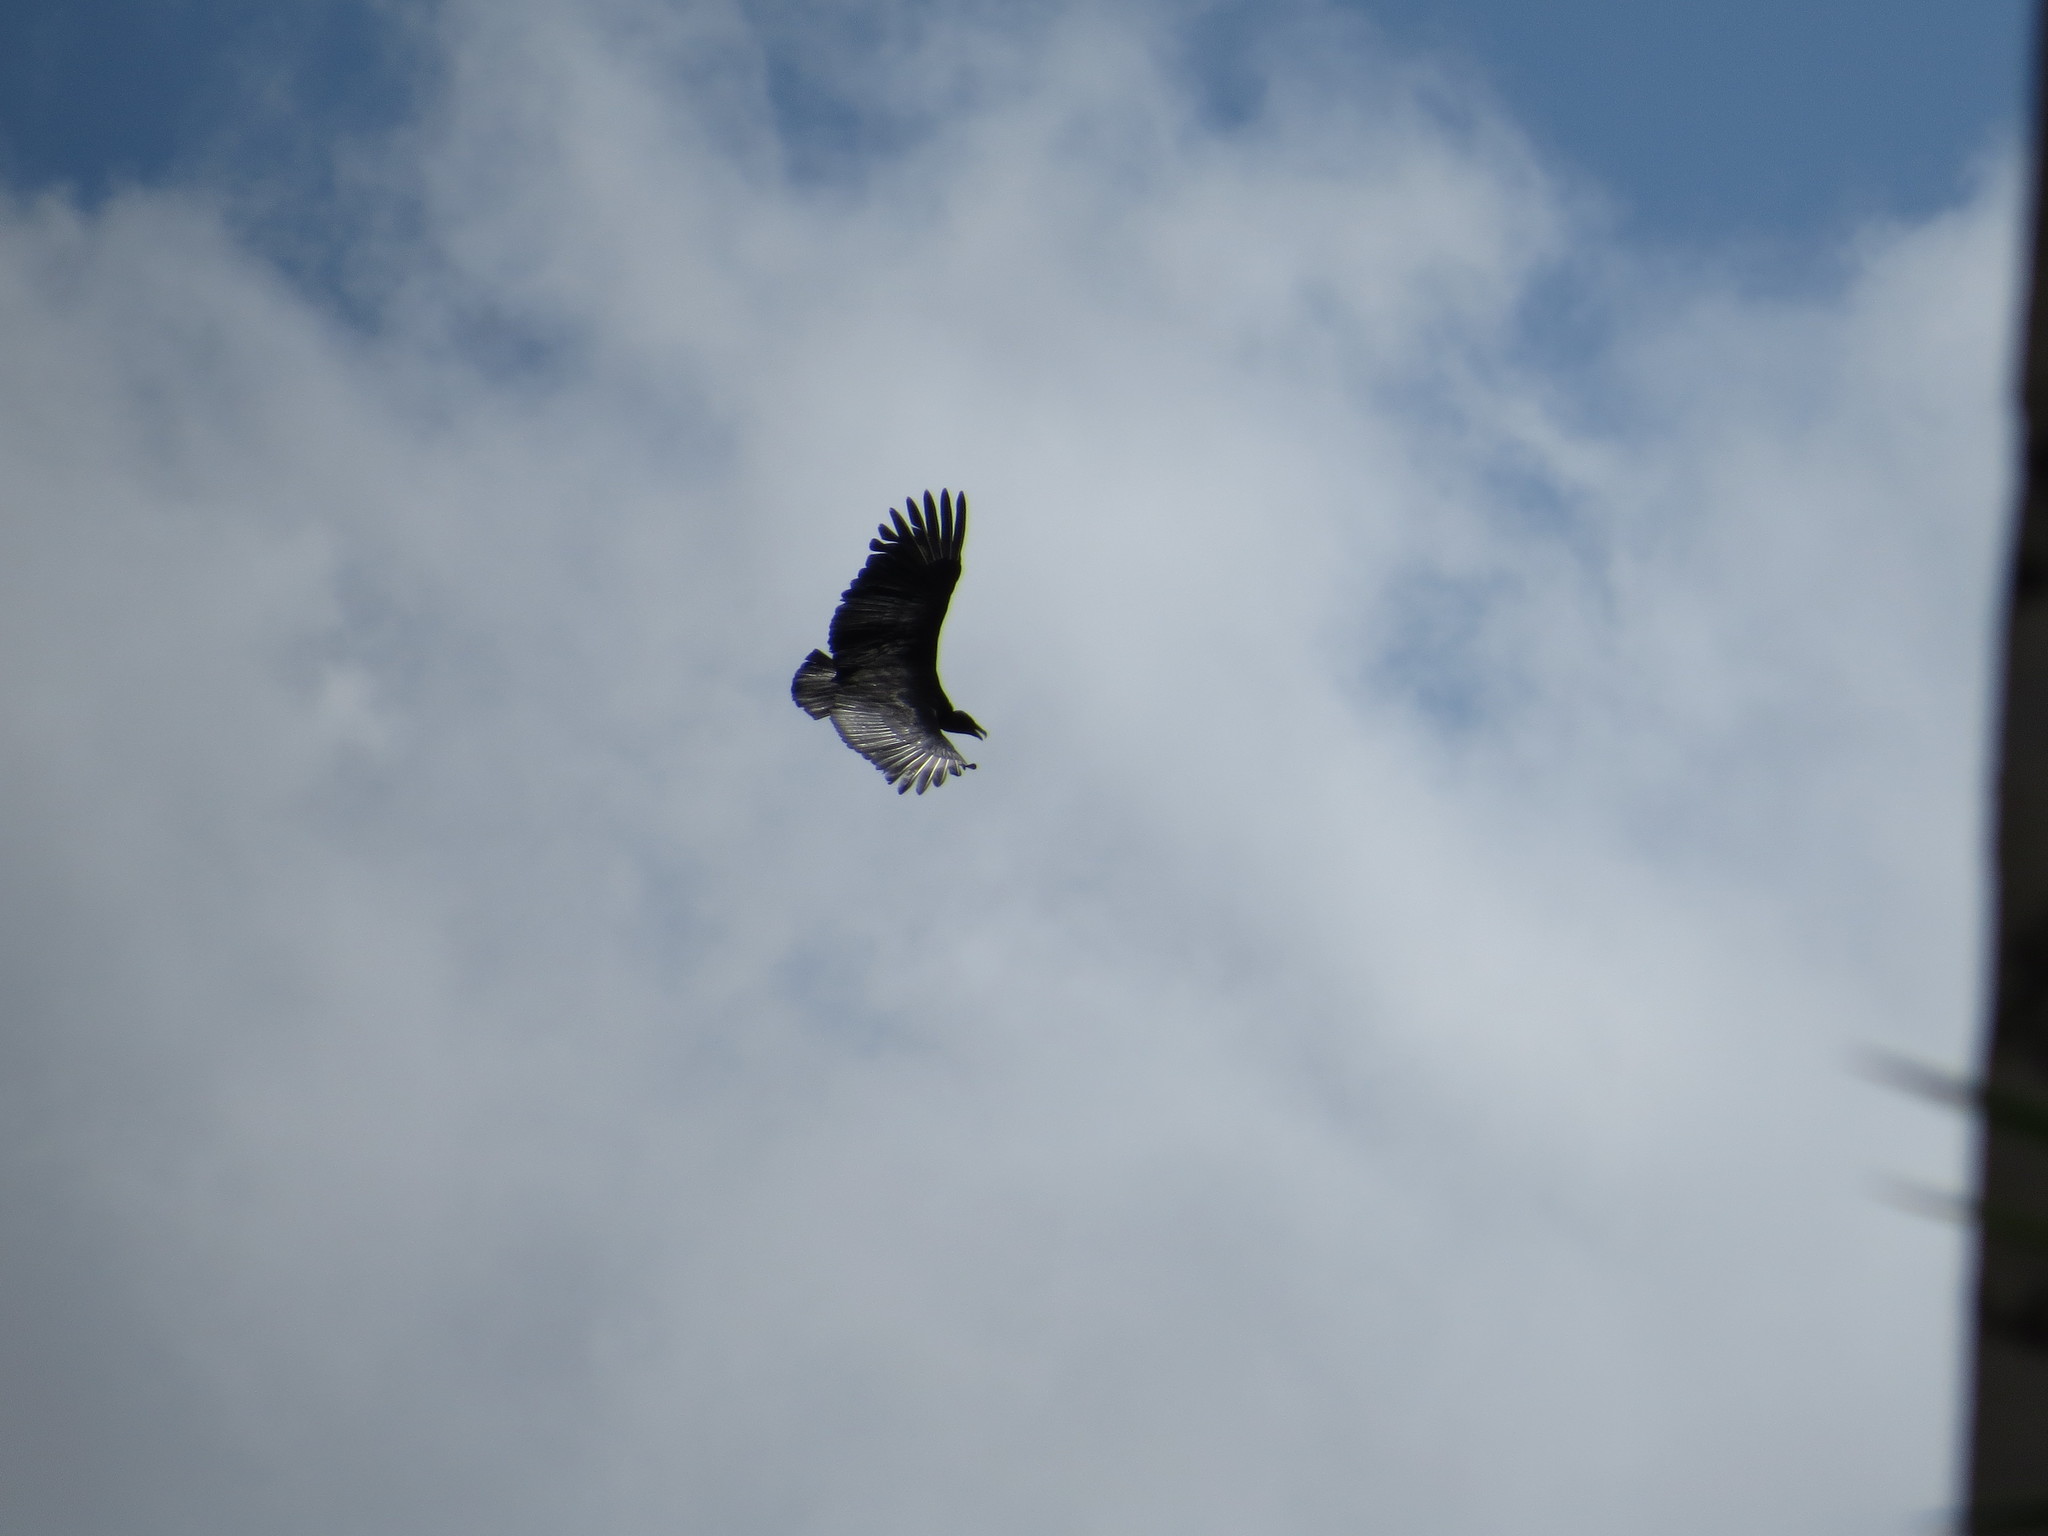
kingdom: Animalia
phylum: Chordata
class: Aves
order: Accipitriformes
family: Cathartidae
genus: Coragyps
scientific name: Coragyps atratus
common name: Black vulture
